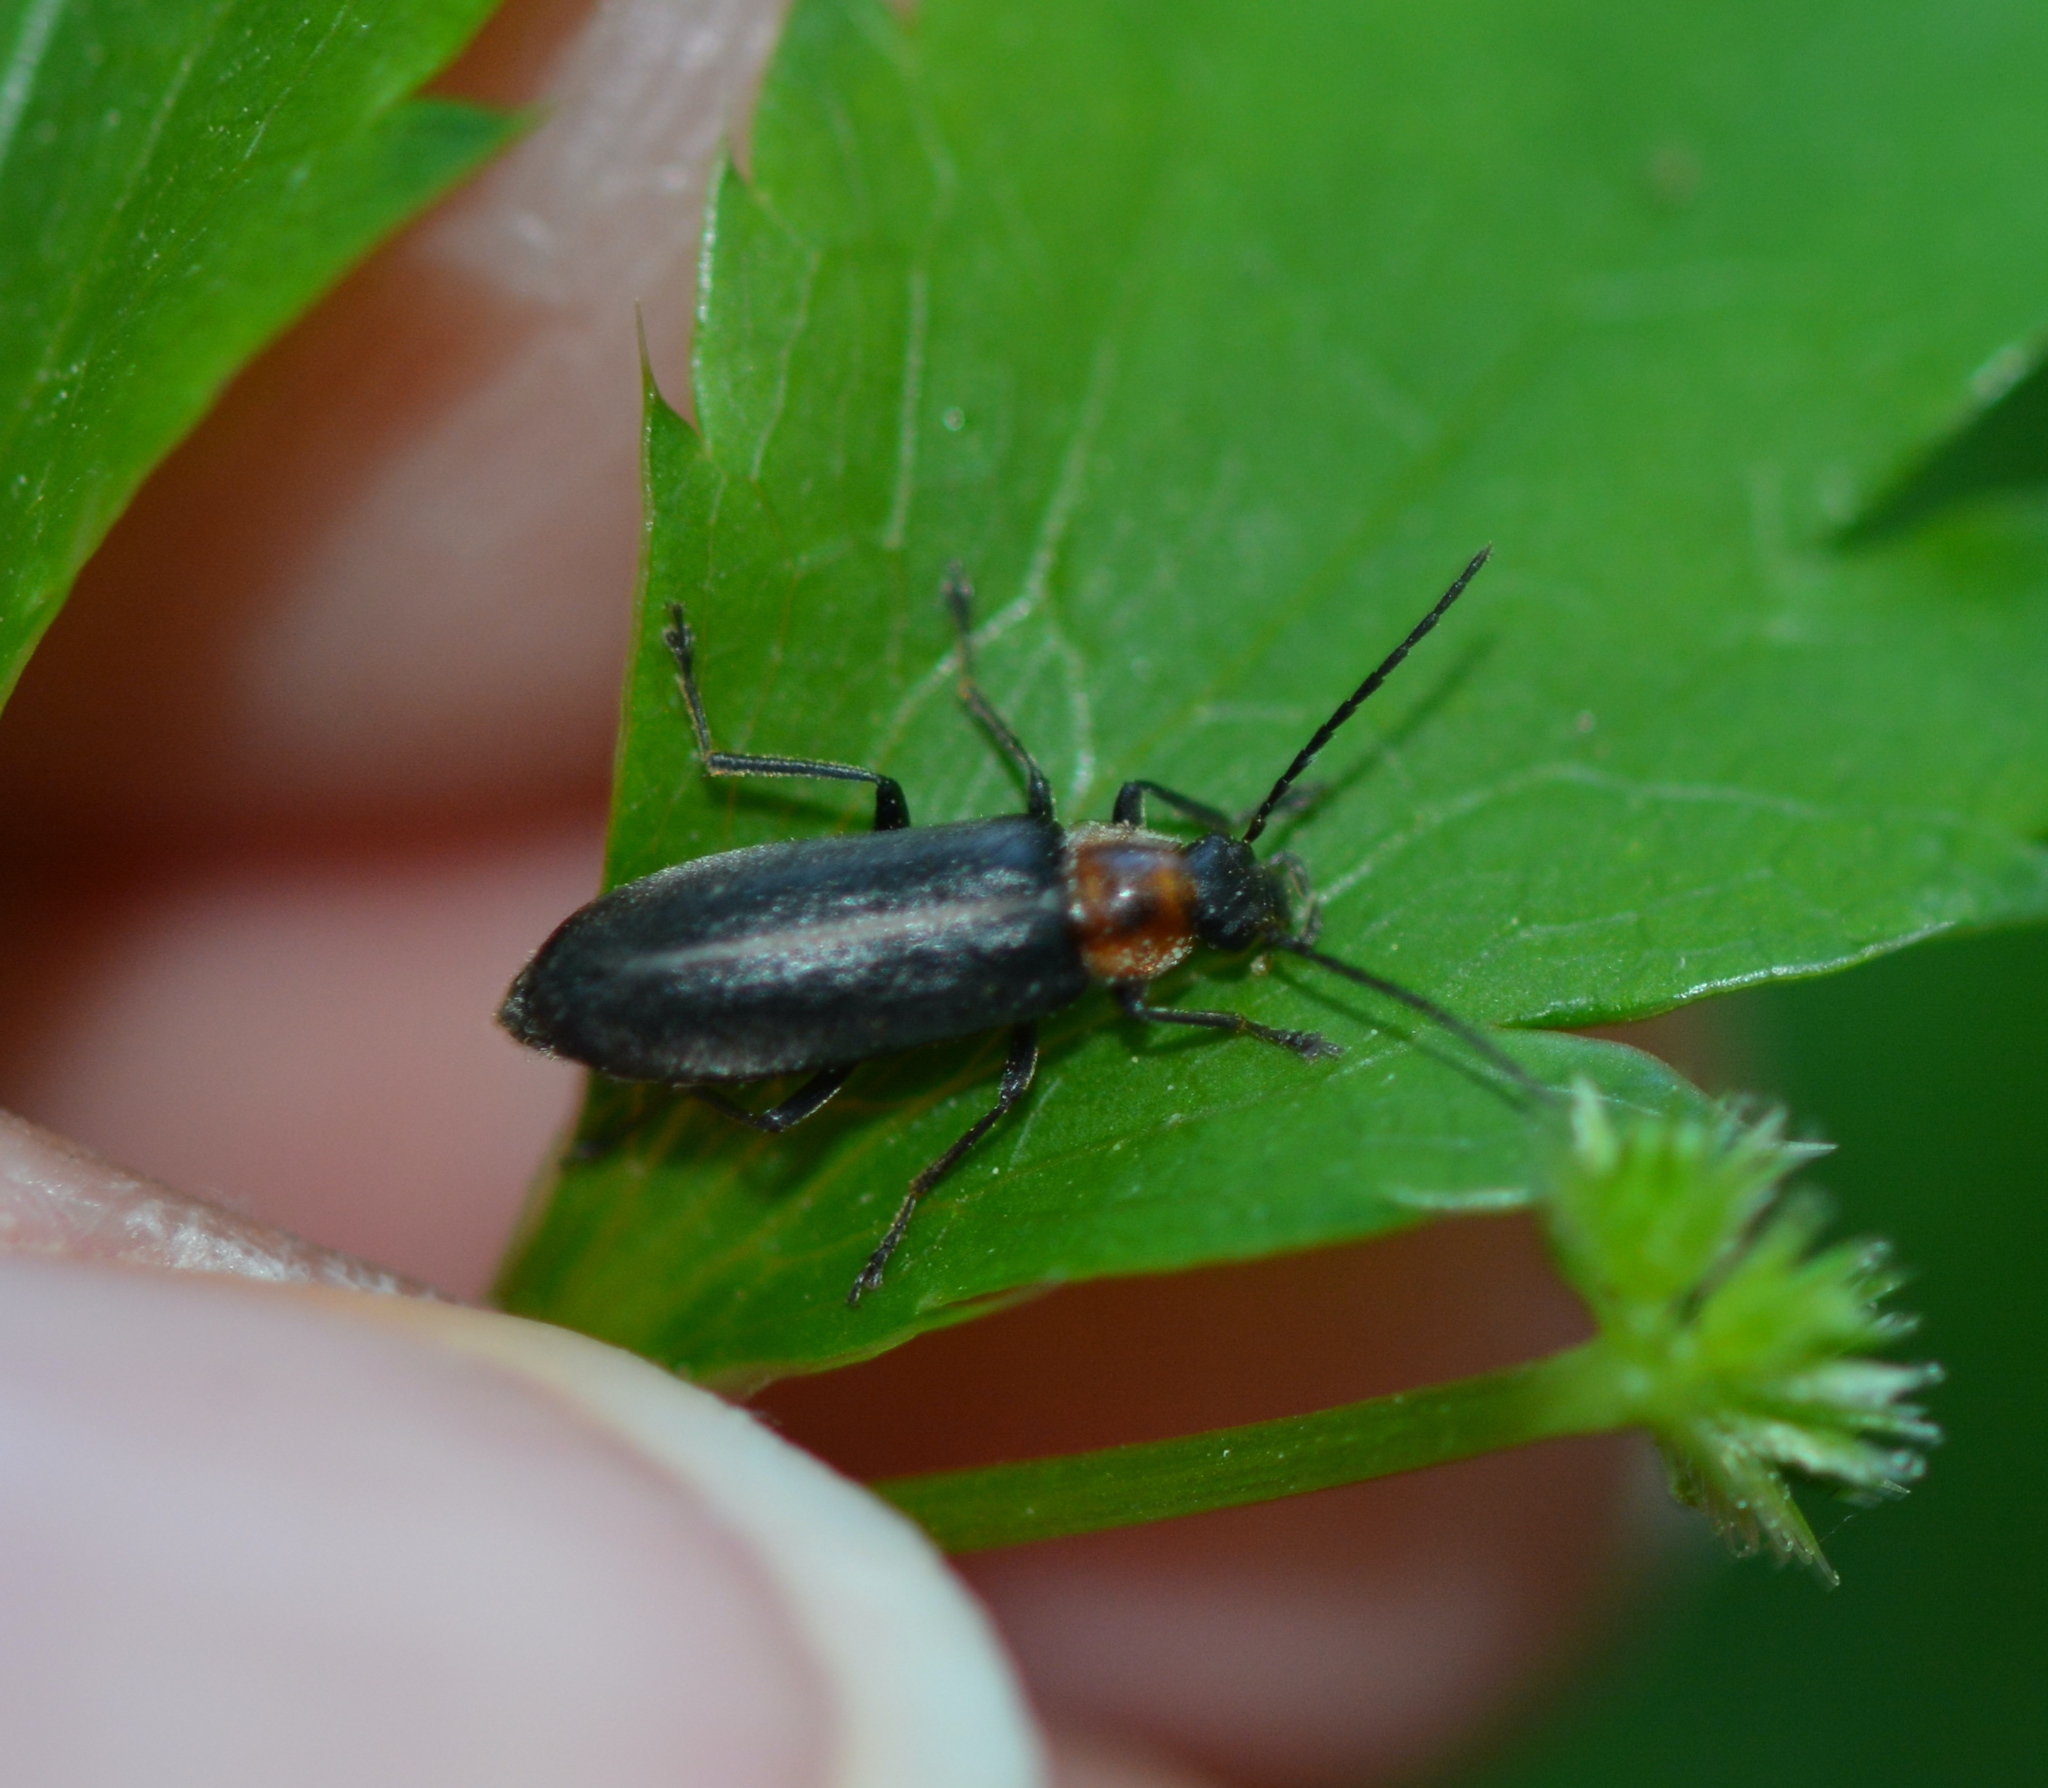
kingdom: Animalia
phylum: Arthropoda
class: Insecta
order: Coleoptera
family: Melandryidae
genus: Osphya
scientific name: Osphya varians
